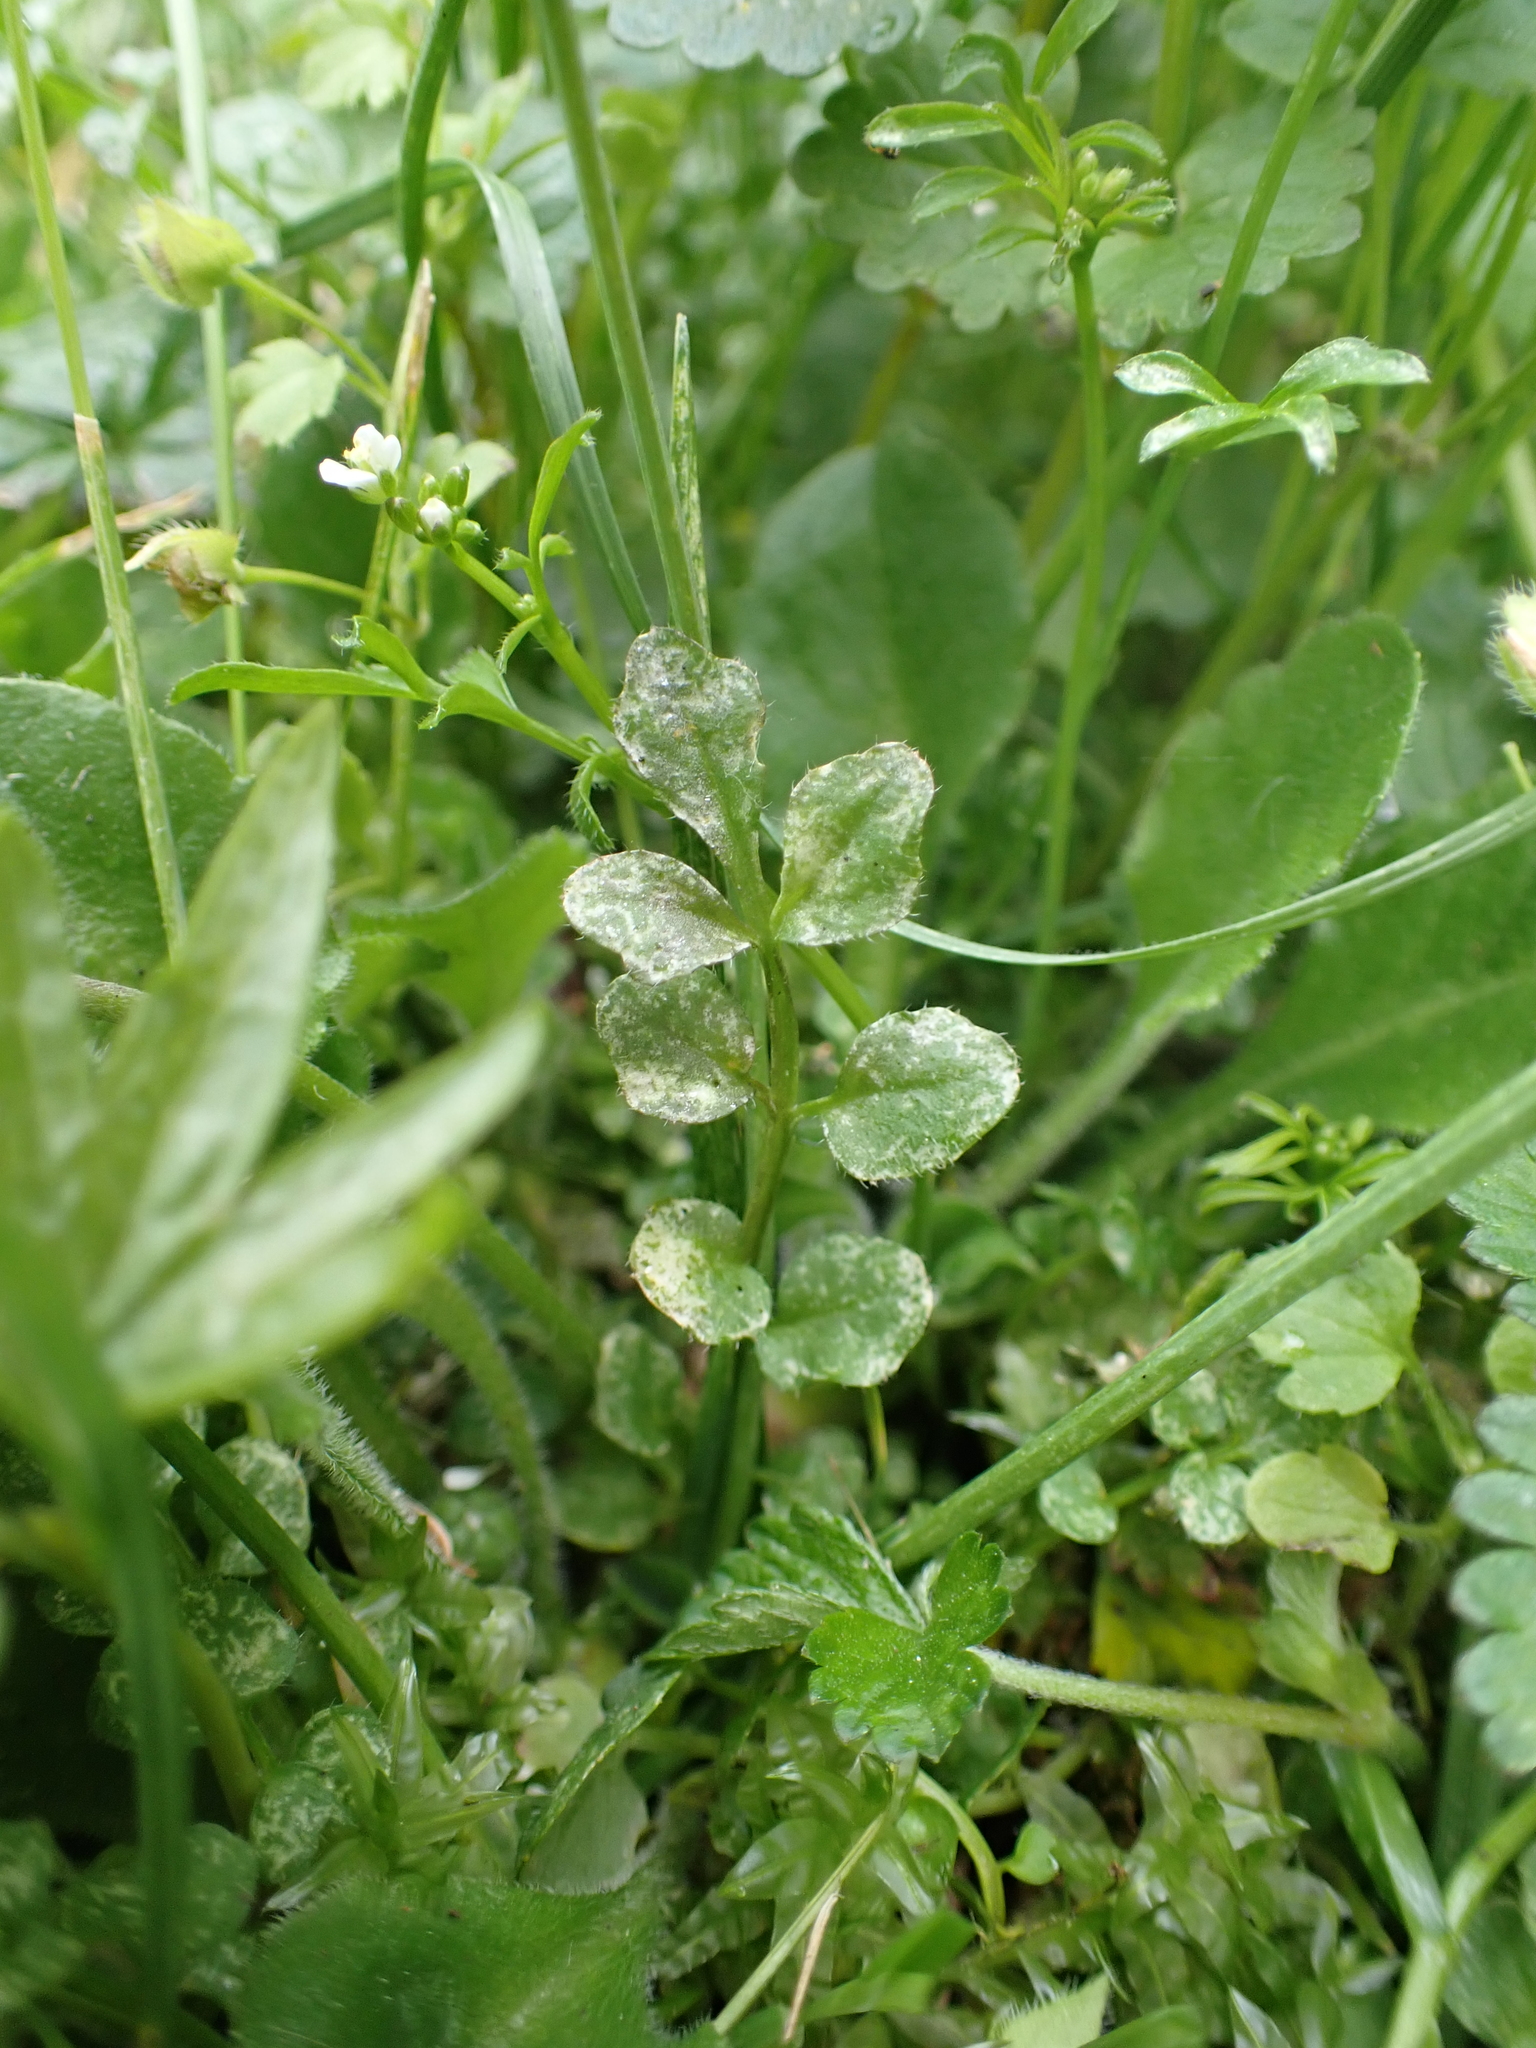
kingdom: Chromista
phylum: Oomycota
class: Peronosporea
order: Albuginales
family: Albuginaceae
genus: Albugo
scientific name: Albugo hohenheimia
